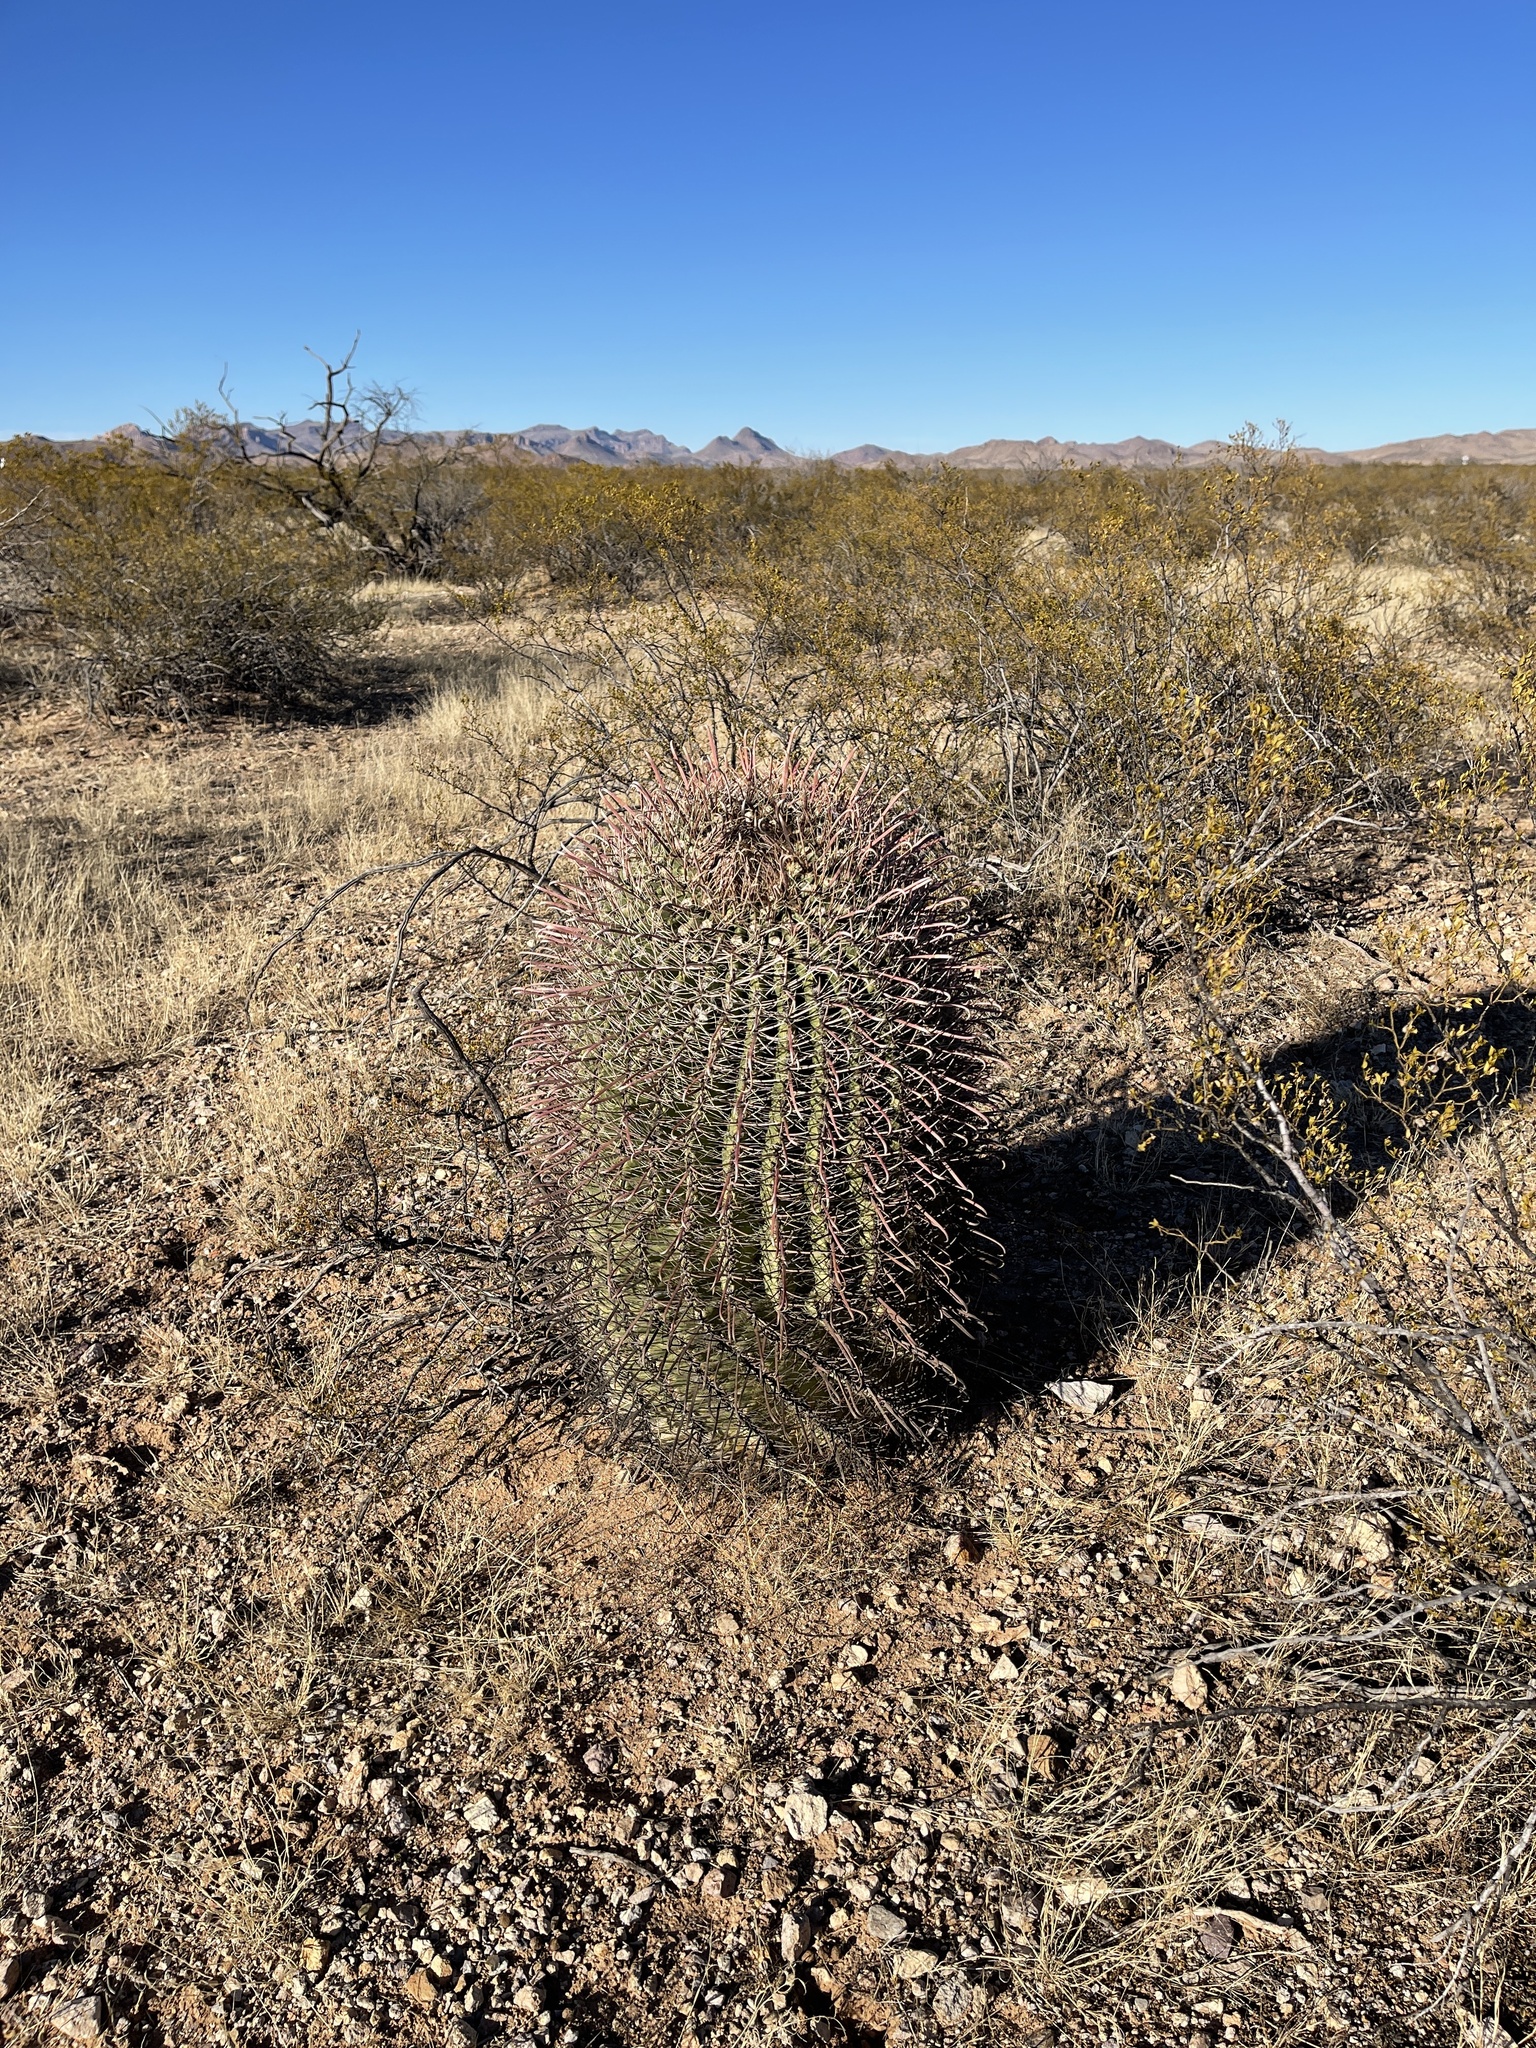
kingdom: Plantae
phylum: Tracheophyta
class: Magnoliopsida
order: Caryophyllales
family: Cactaceae
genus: Ferocactus
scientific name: Ferocactus wislizeni
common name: Candy barrel cactus
